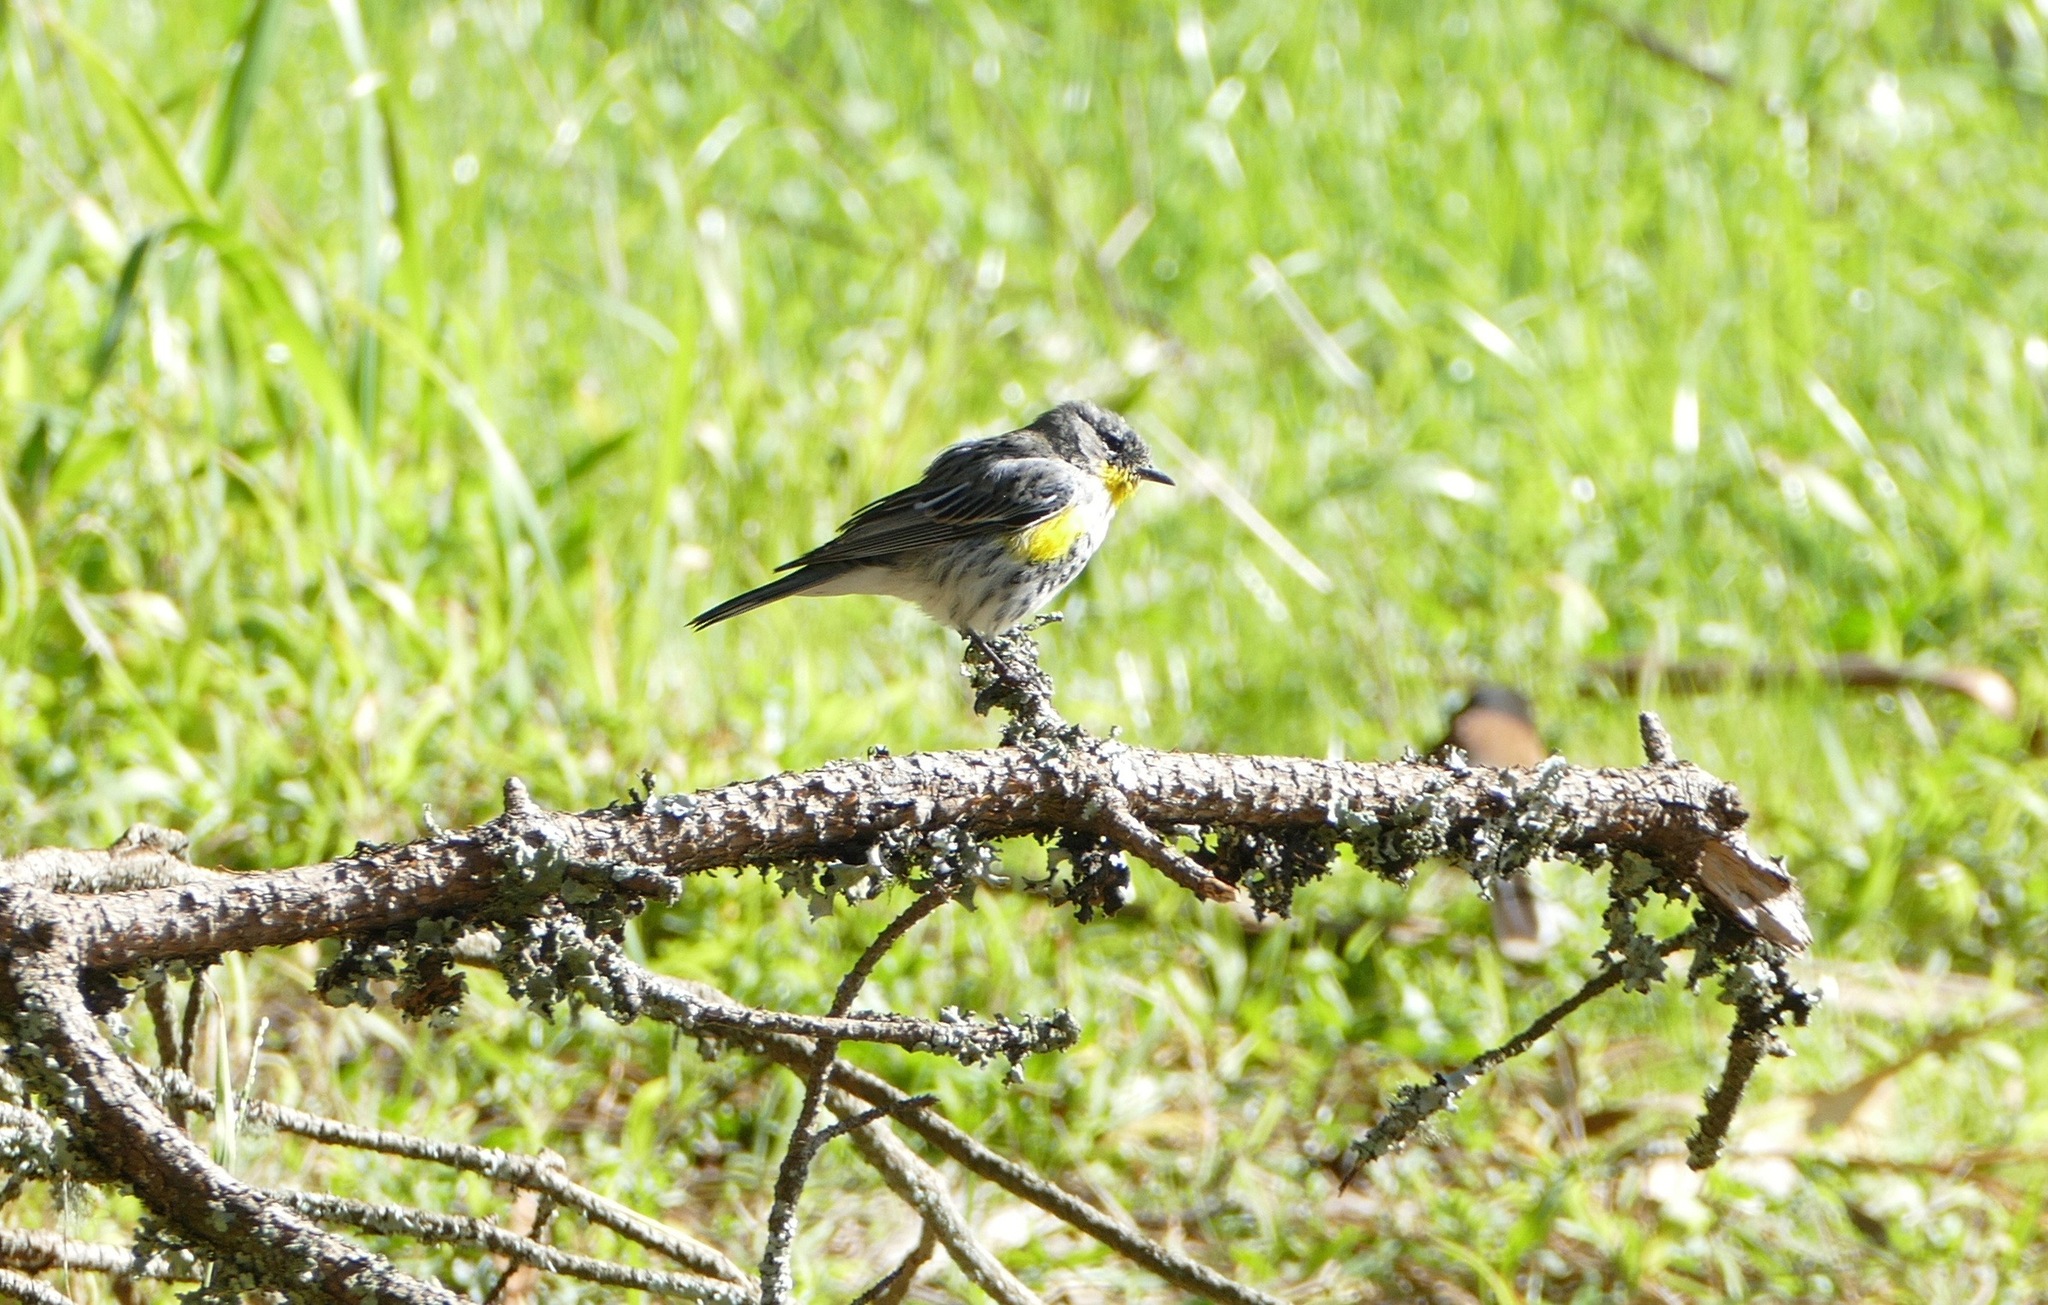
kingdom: Animalia
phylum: Chordata
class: Aves
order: Passeriformes
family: Parulidae
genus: Setophaga
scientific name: Setophaga coronata
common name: Myrtle warbler
